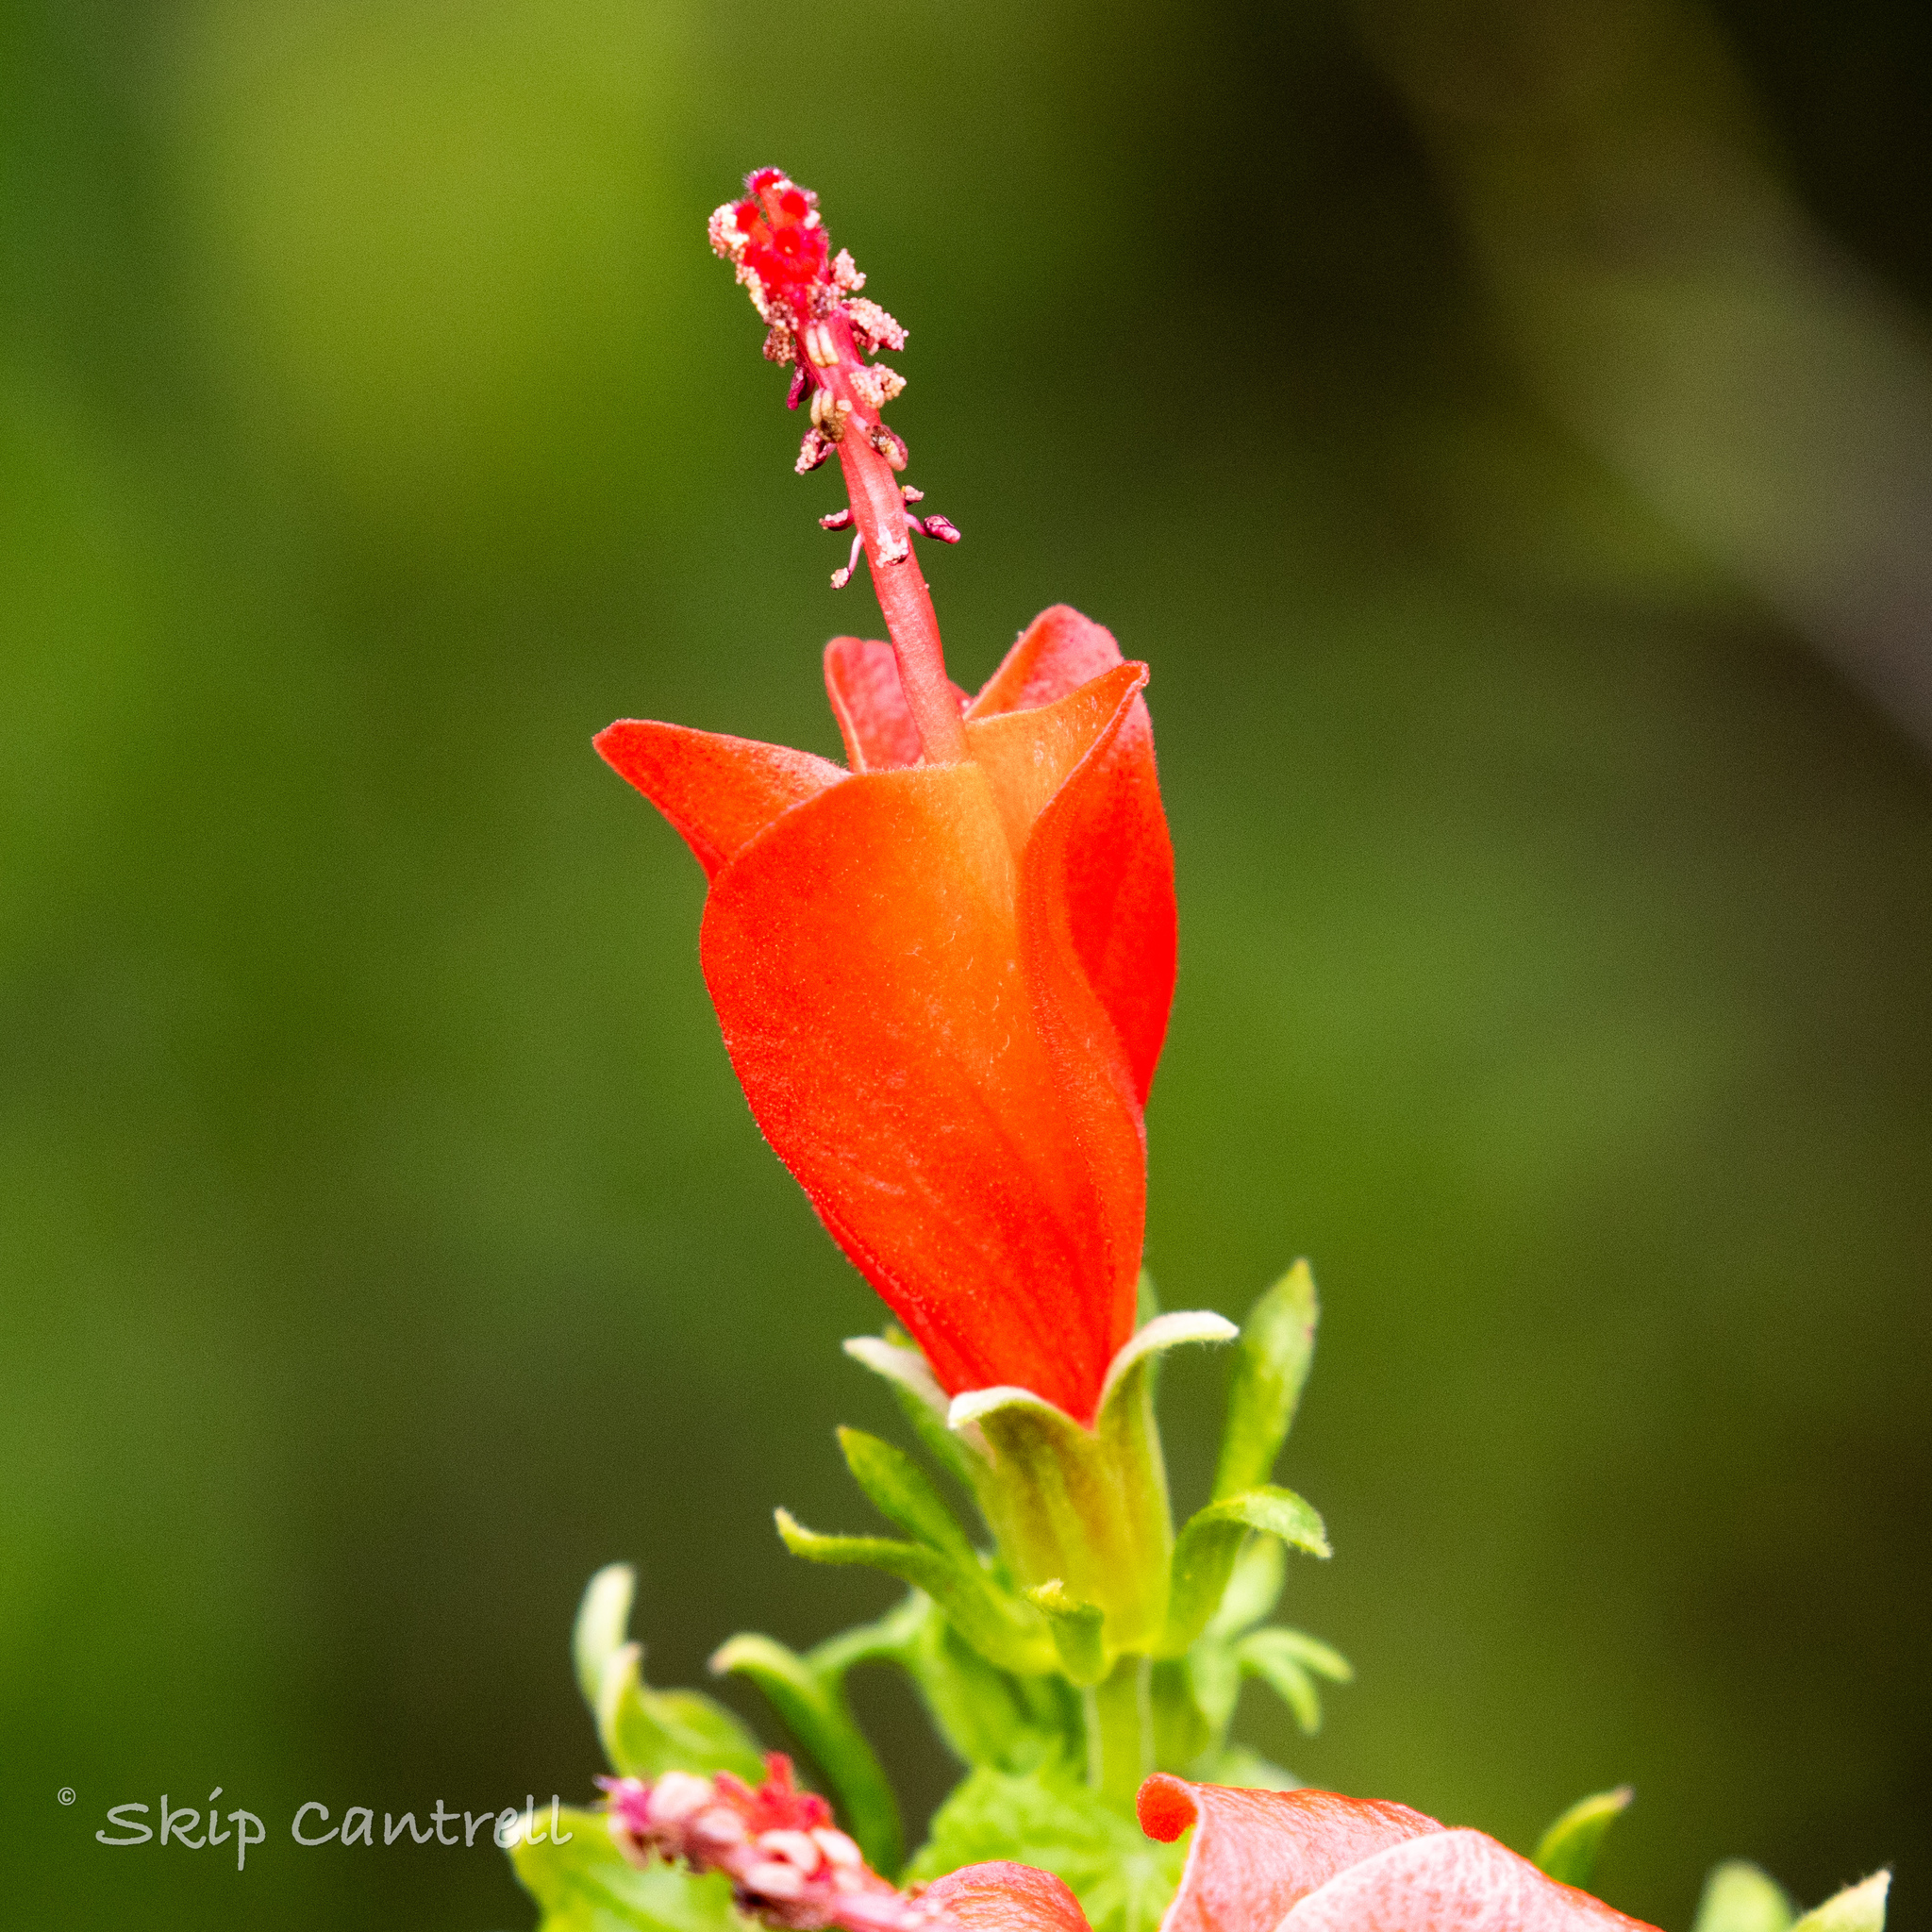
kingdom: Plantae
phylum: Tracheophyta
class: Magnoliopsida
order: Malvales
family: Malvaceae
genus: Malvaviscus
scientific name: Malvaviscus arboreus
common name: Wax mallow
